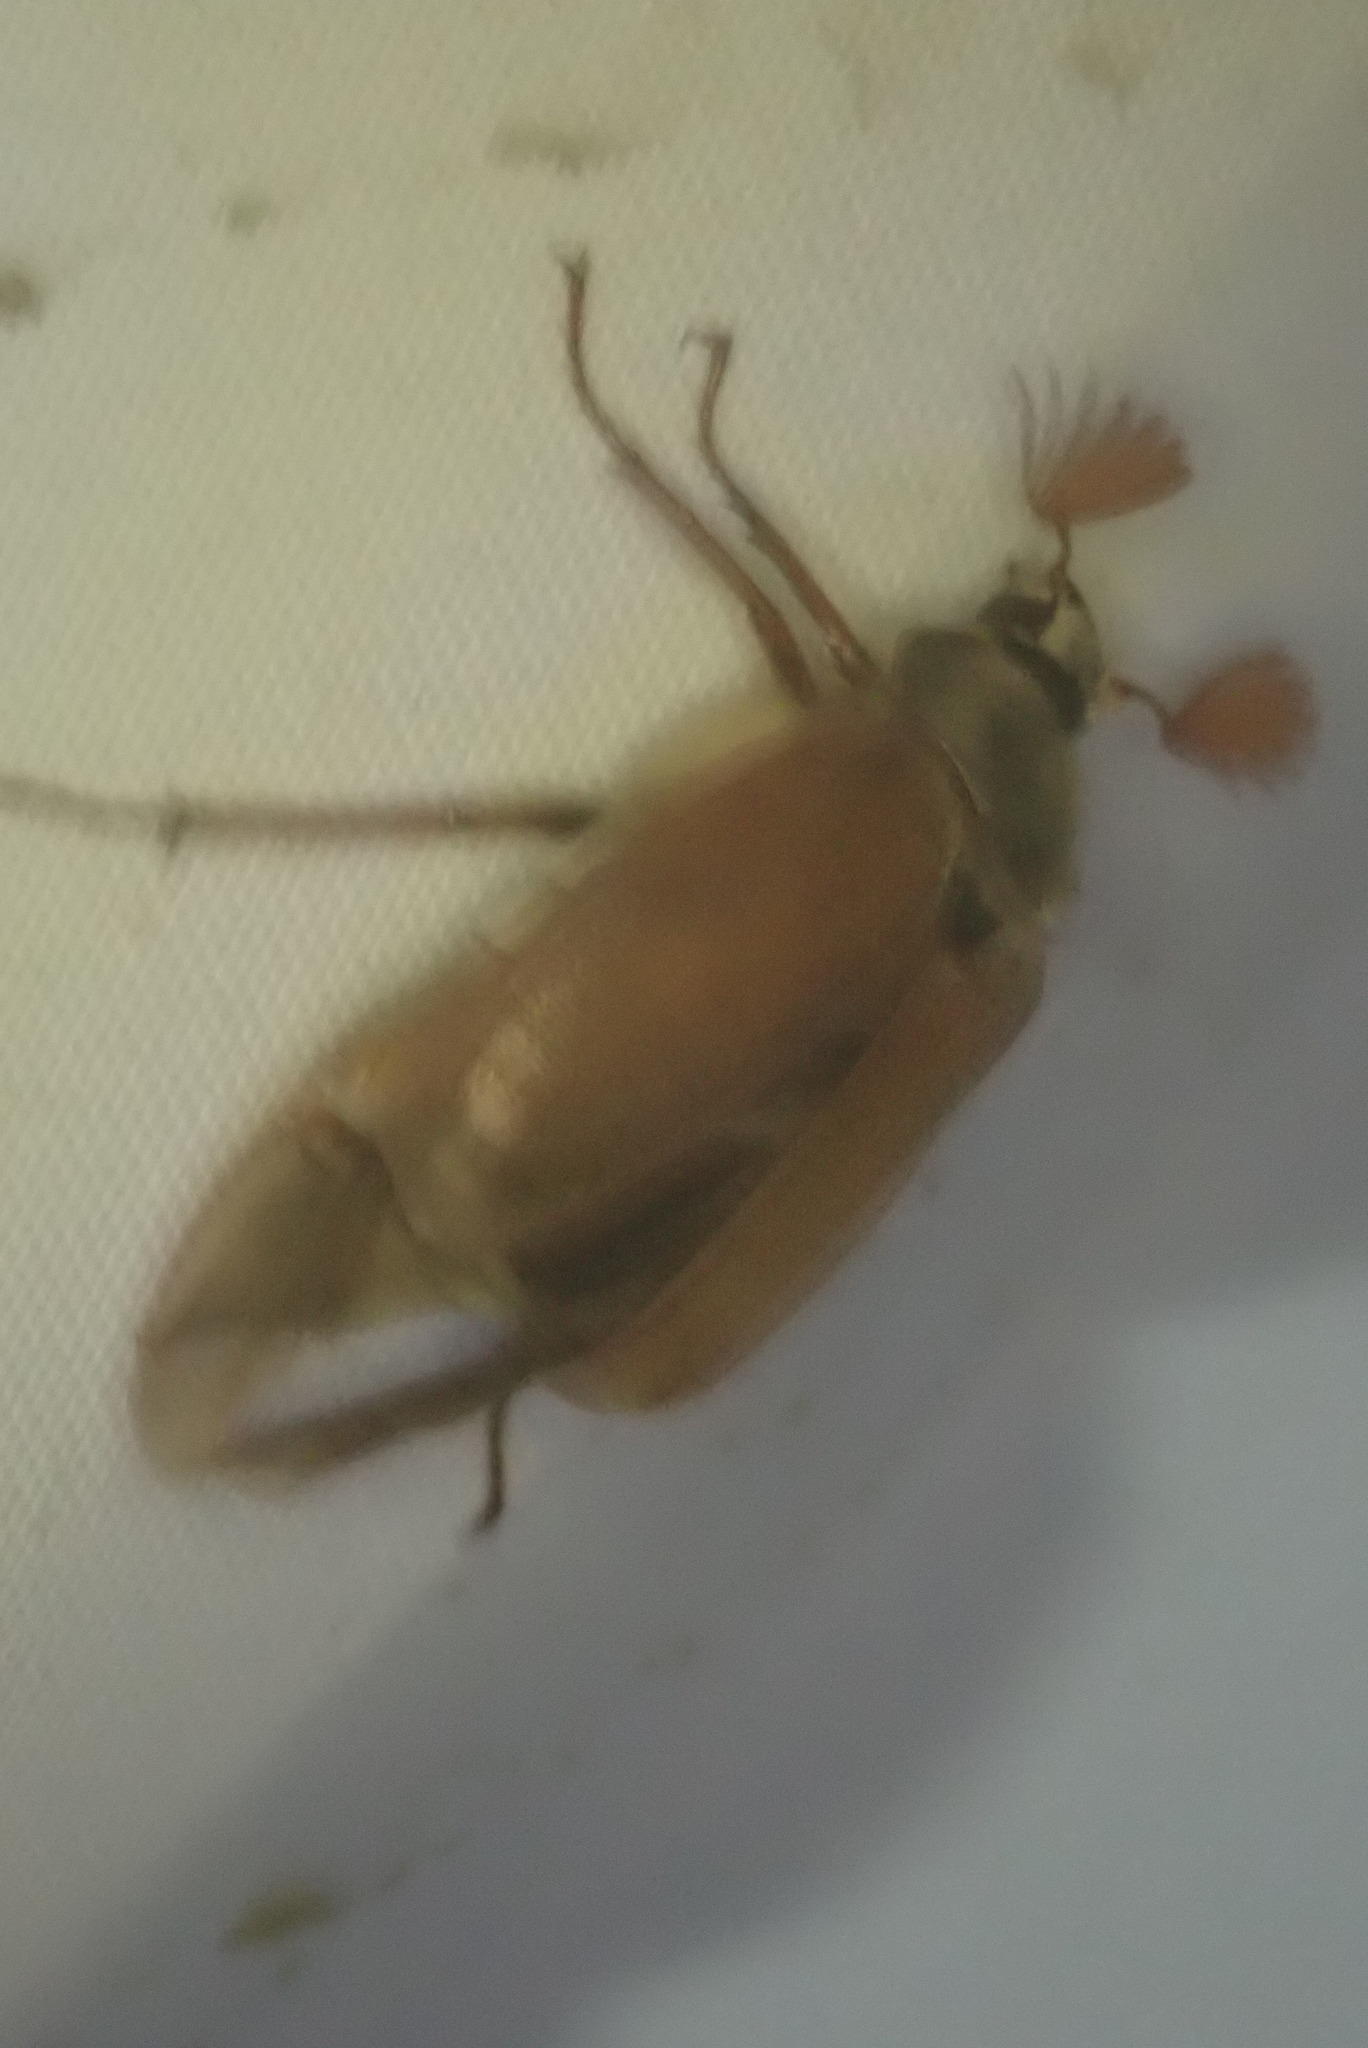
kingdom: Animalia
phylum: Arthropoda
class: Insecta
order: Coleoptera
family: Scarabaeidae
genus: Melolontha
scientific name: Melolontha melolontha
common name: Cockchafer maybeetle
